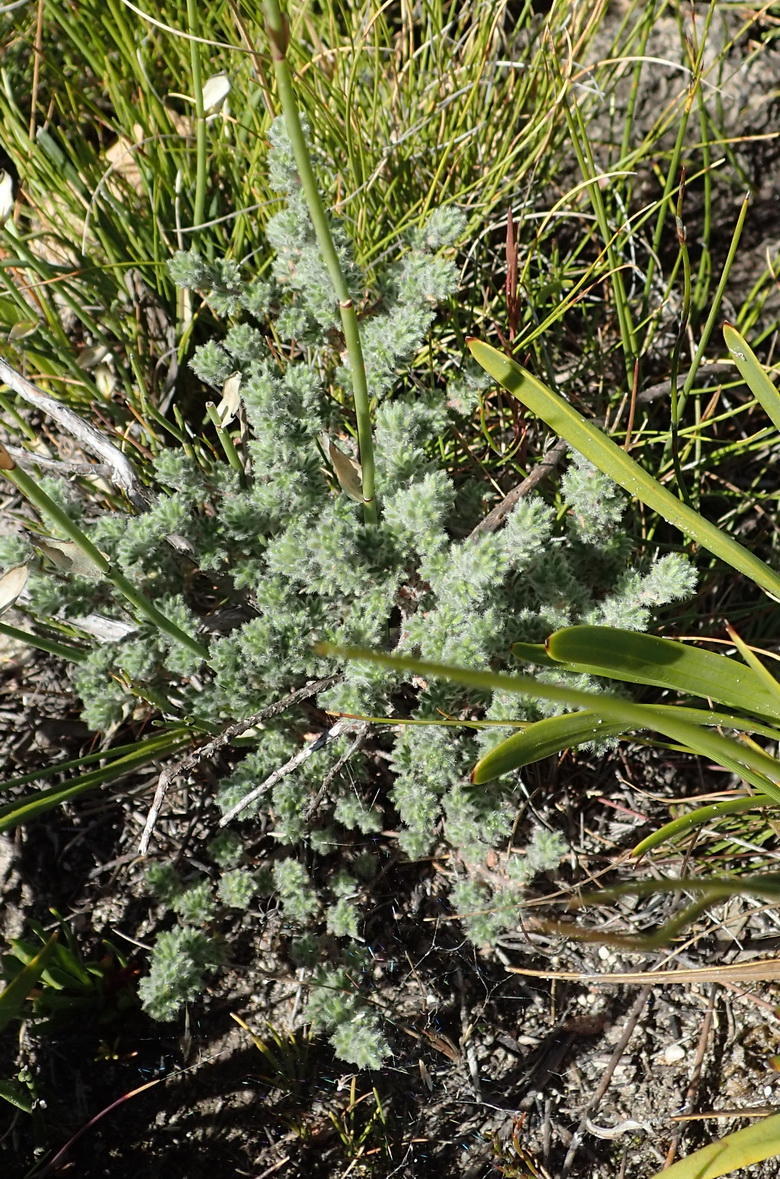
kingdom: Plantae
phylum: Tracheophyta
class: Magnoliopsida
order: Rosales
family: Rosaceae
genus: Cliffortia
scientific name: Cliffortia eriocephalina
